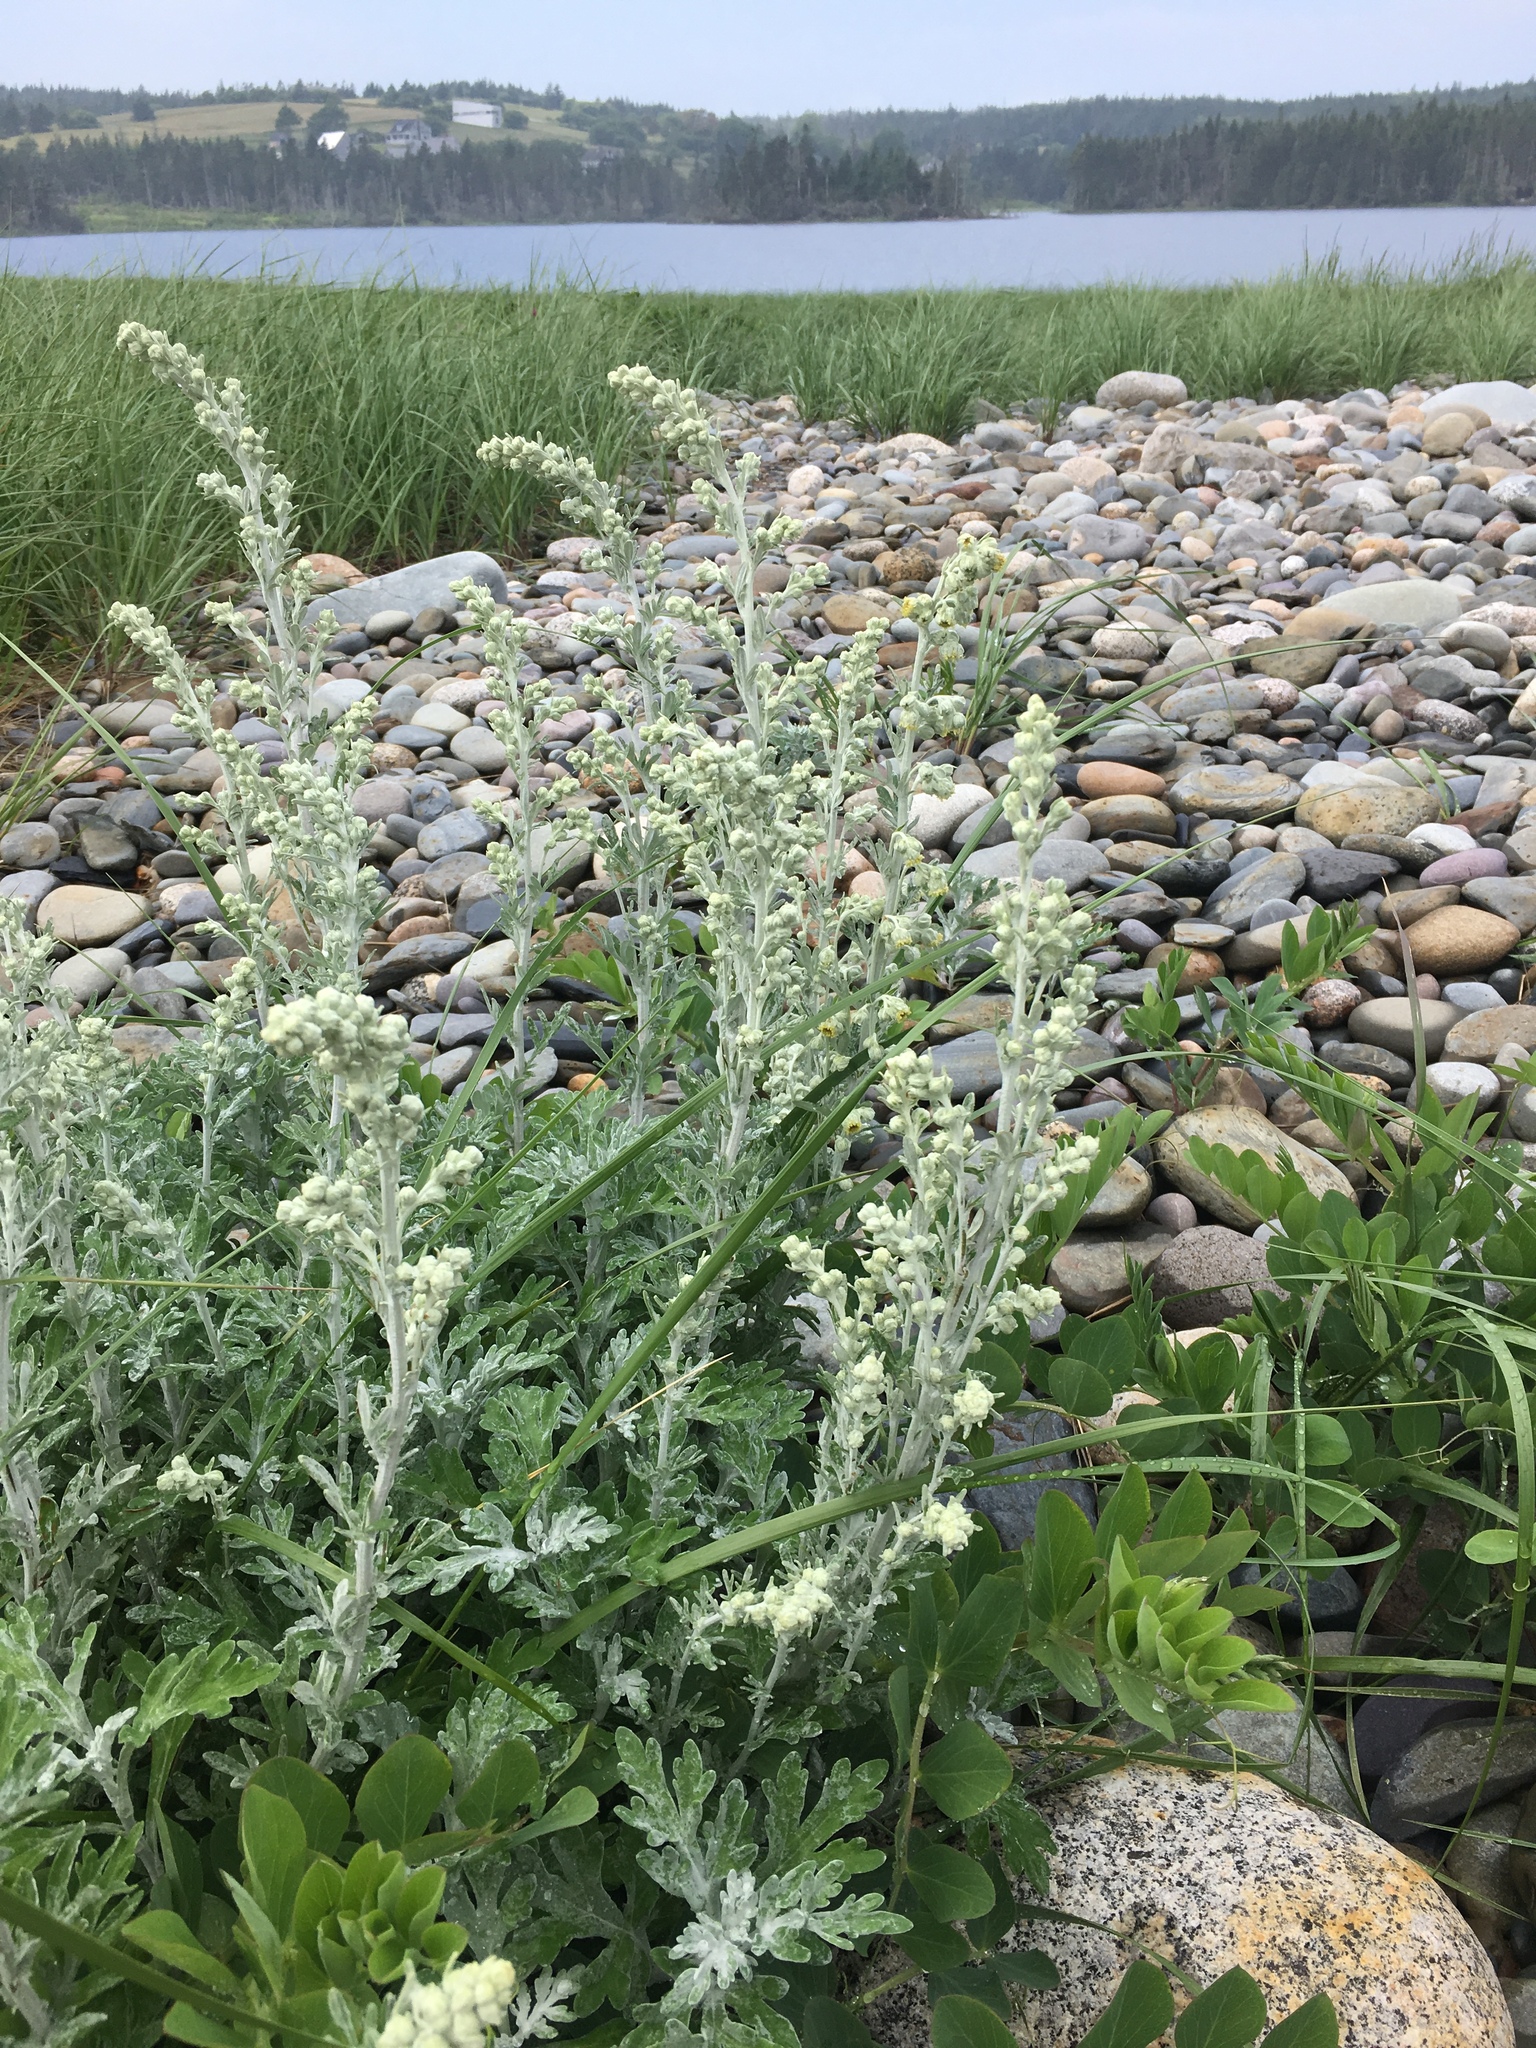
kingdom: Plantae
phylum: Tracheophyta
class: Magnoliopsida
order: Asterales
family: Asteraceae
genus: Artemisia
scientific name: Artemisia stelleriana
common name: Beach wormwood
